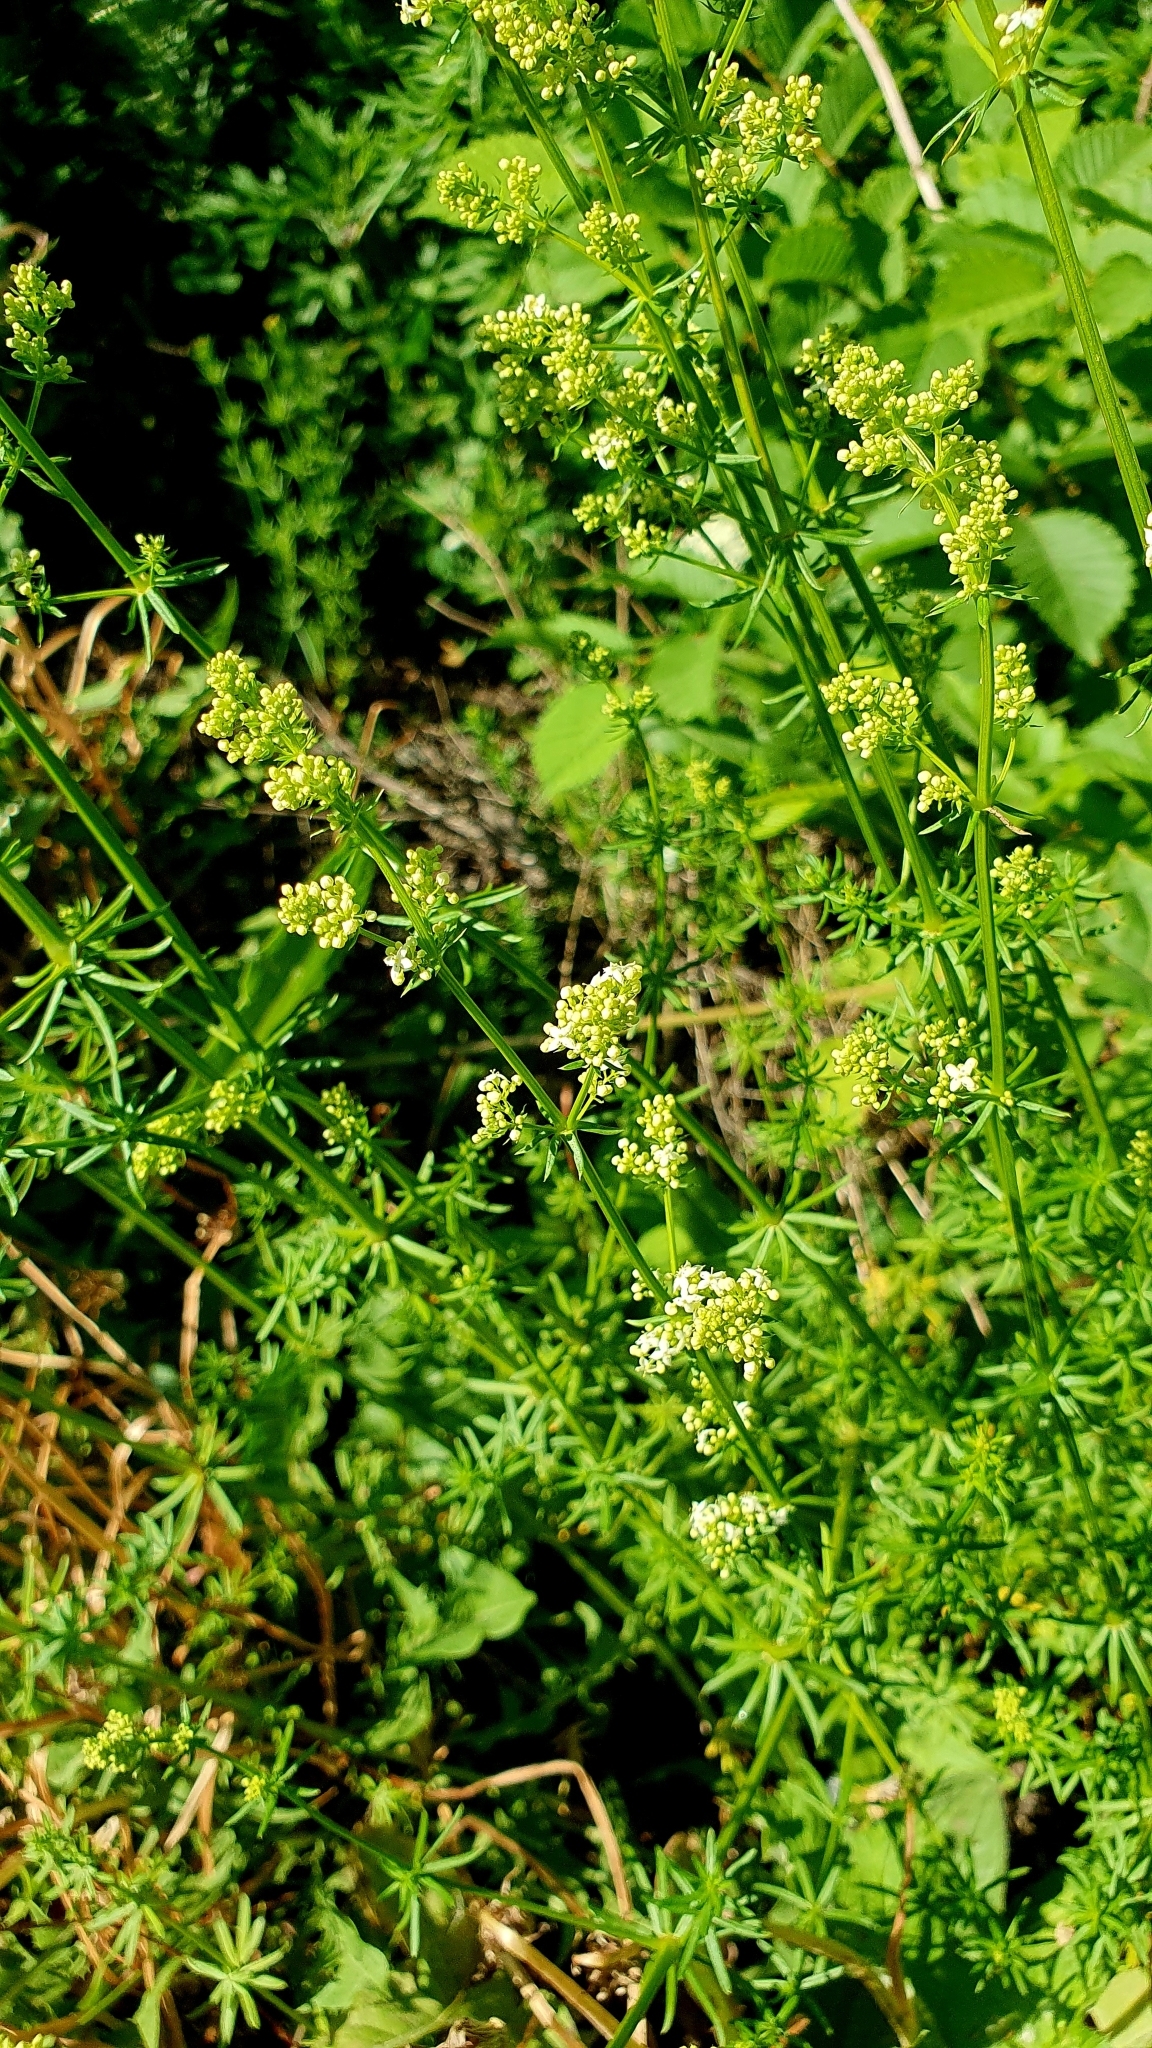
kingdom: Plantae
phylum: Tracheophyta
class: Magnoliopsida
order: Gentianales
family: Rubiaceae
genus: Galium
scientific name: Galium mollugo
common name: Hedge bedstraw
